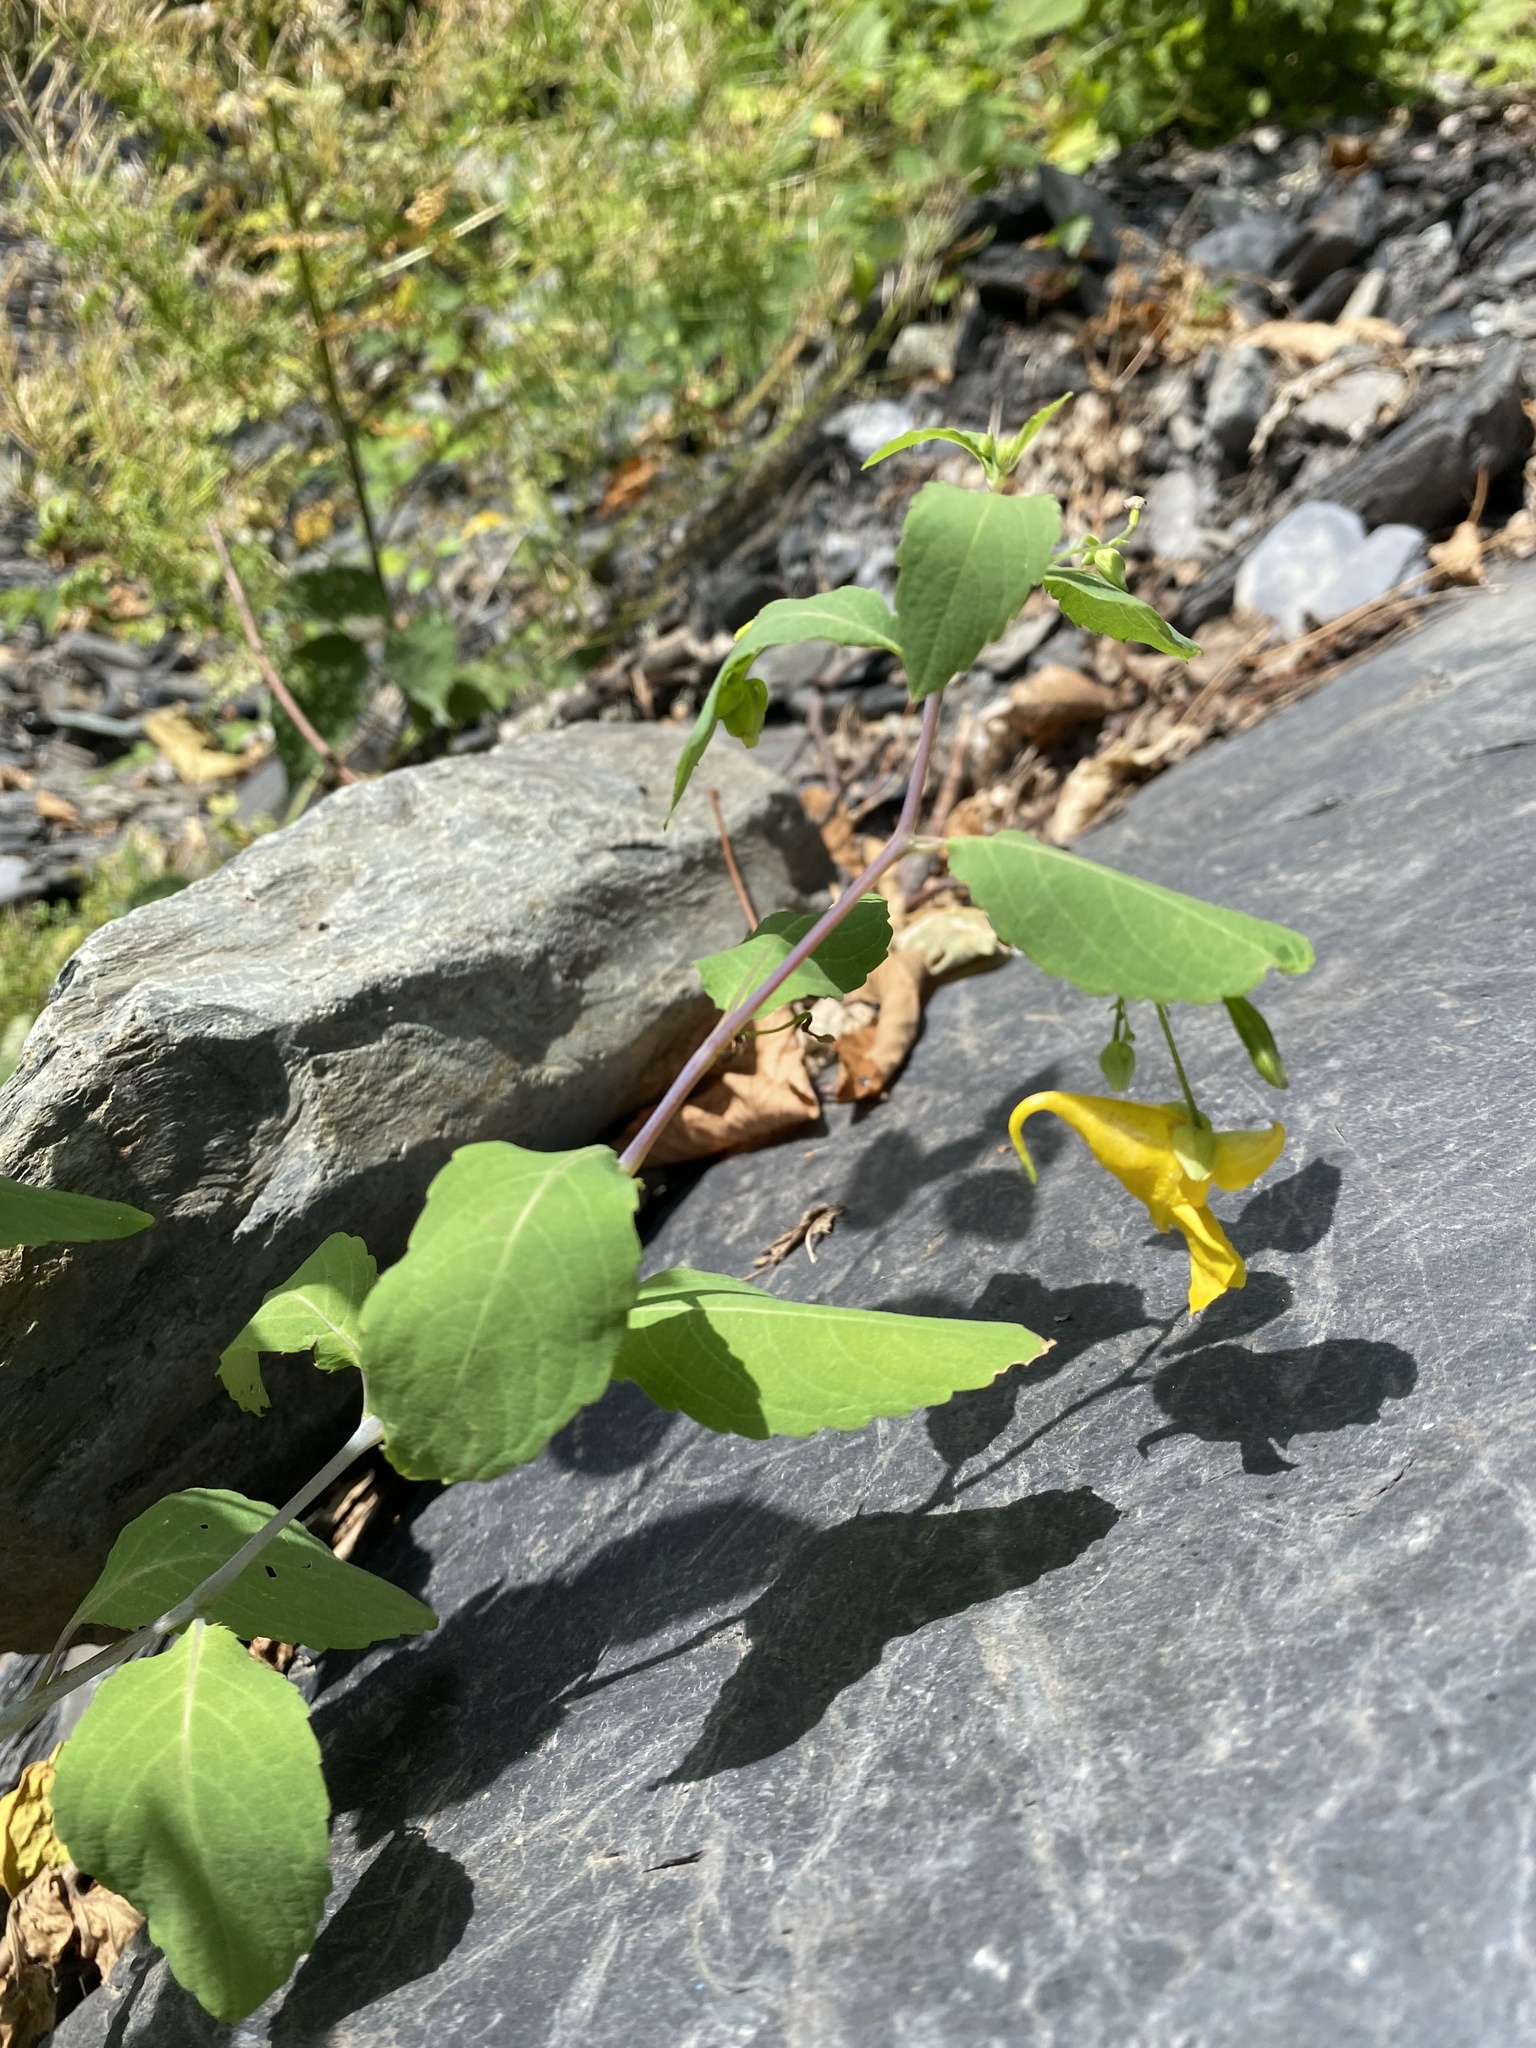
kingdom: Plantae
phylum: Tracheophyta
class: Magnoliopsida
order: Ericales
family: Balsaminaceae
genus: Impatiens
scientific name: Impatiens noli-tangere
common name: Touch-me-not balsam
